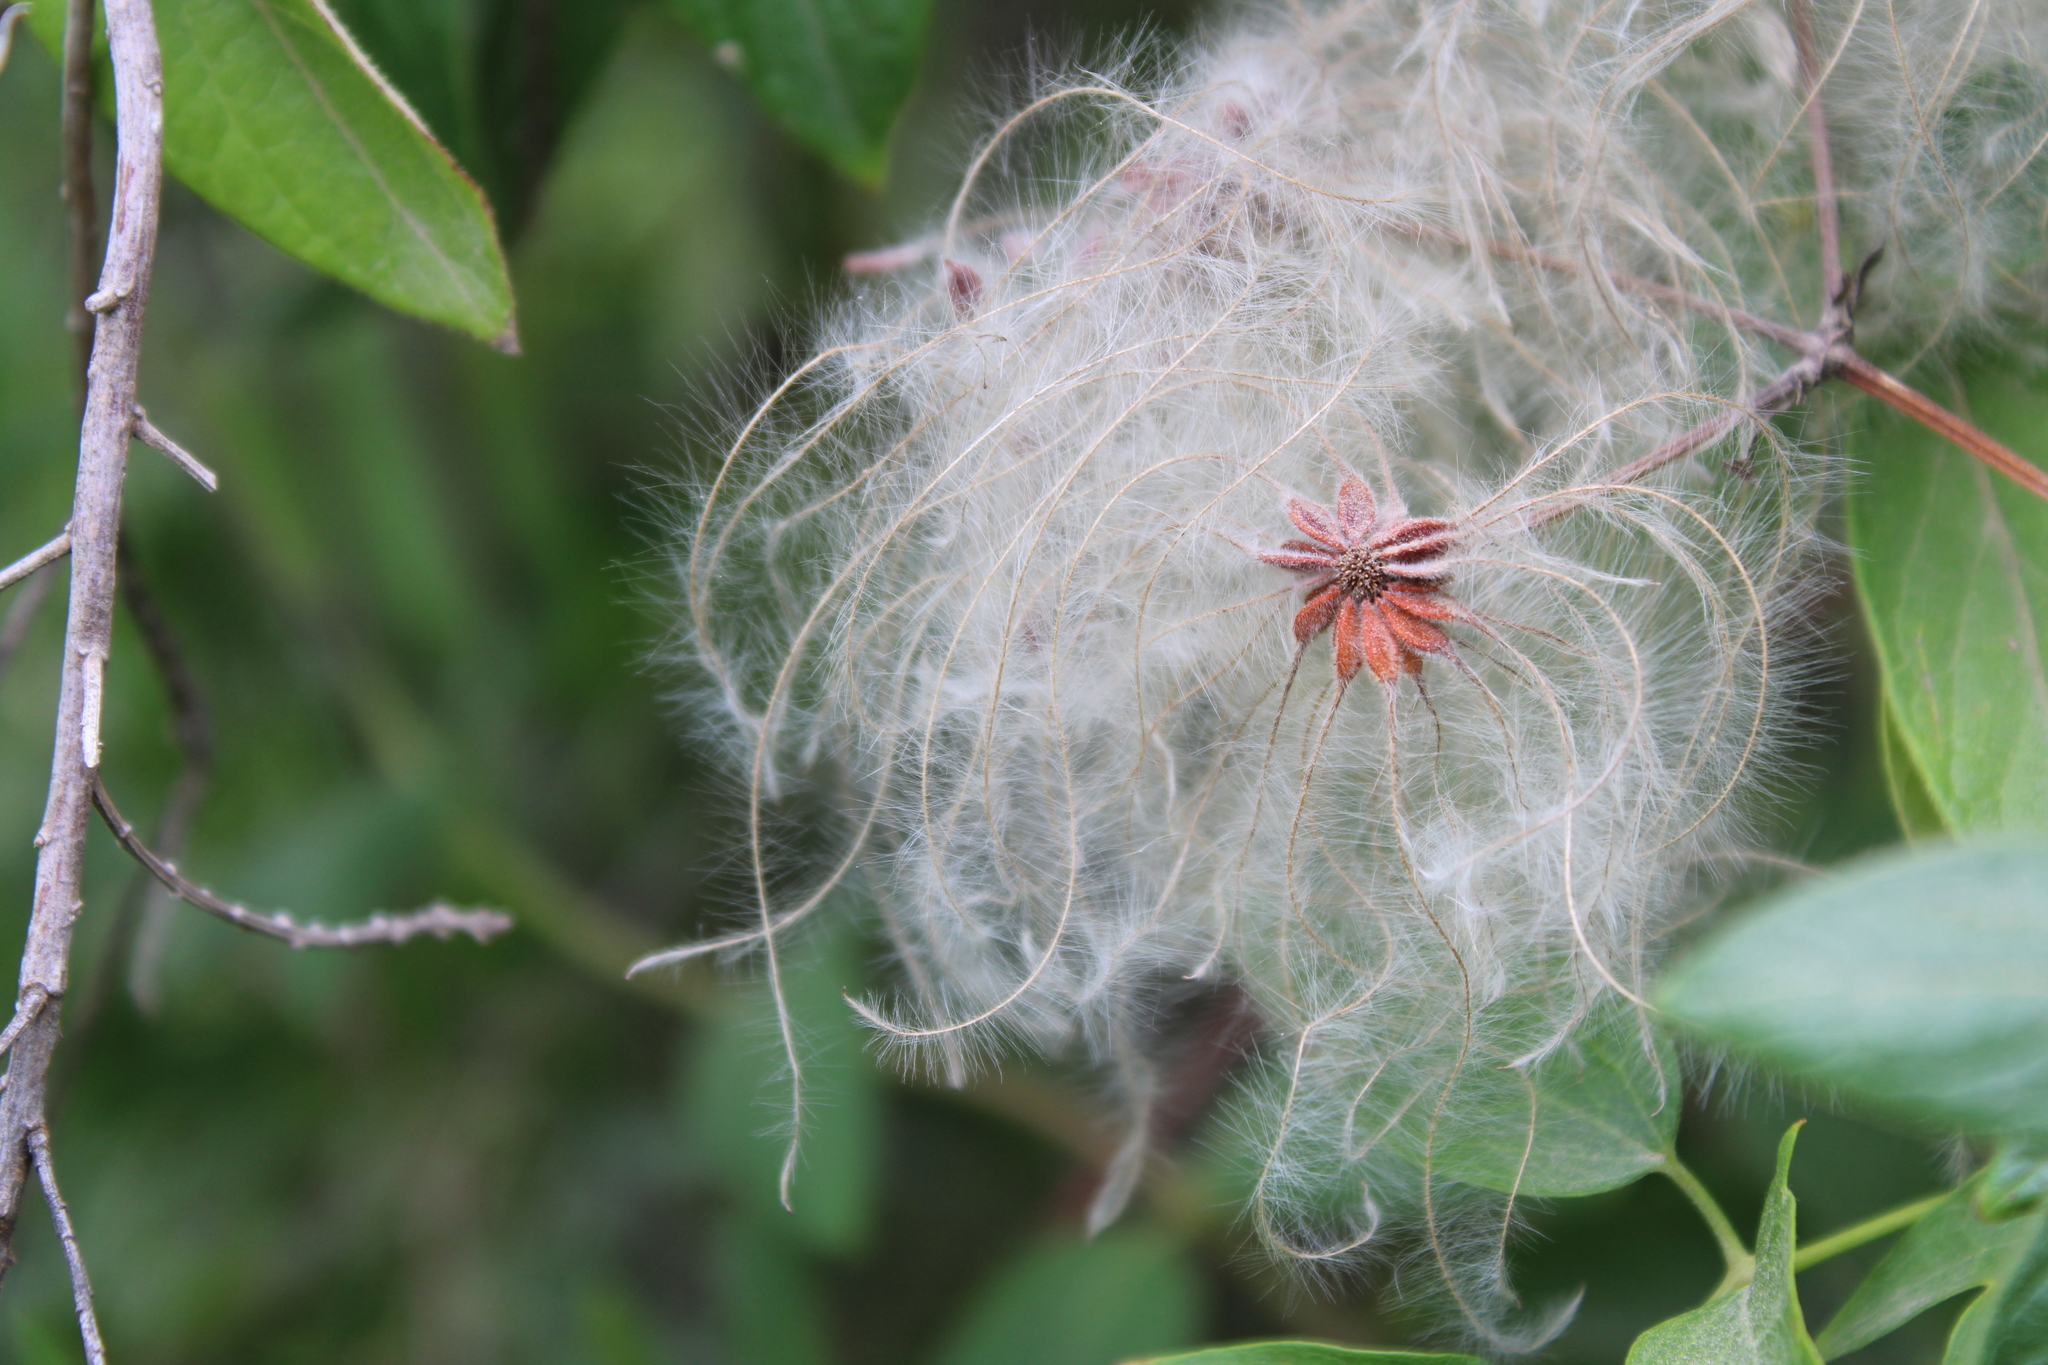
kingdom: Plantae
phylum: Tracheophyta
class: Magnoliopsida
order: Ranunculales
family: Ranunculaceae
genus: Clematis
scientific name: Clematis montevidensis
